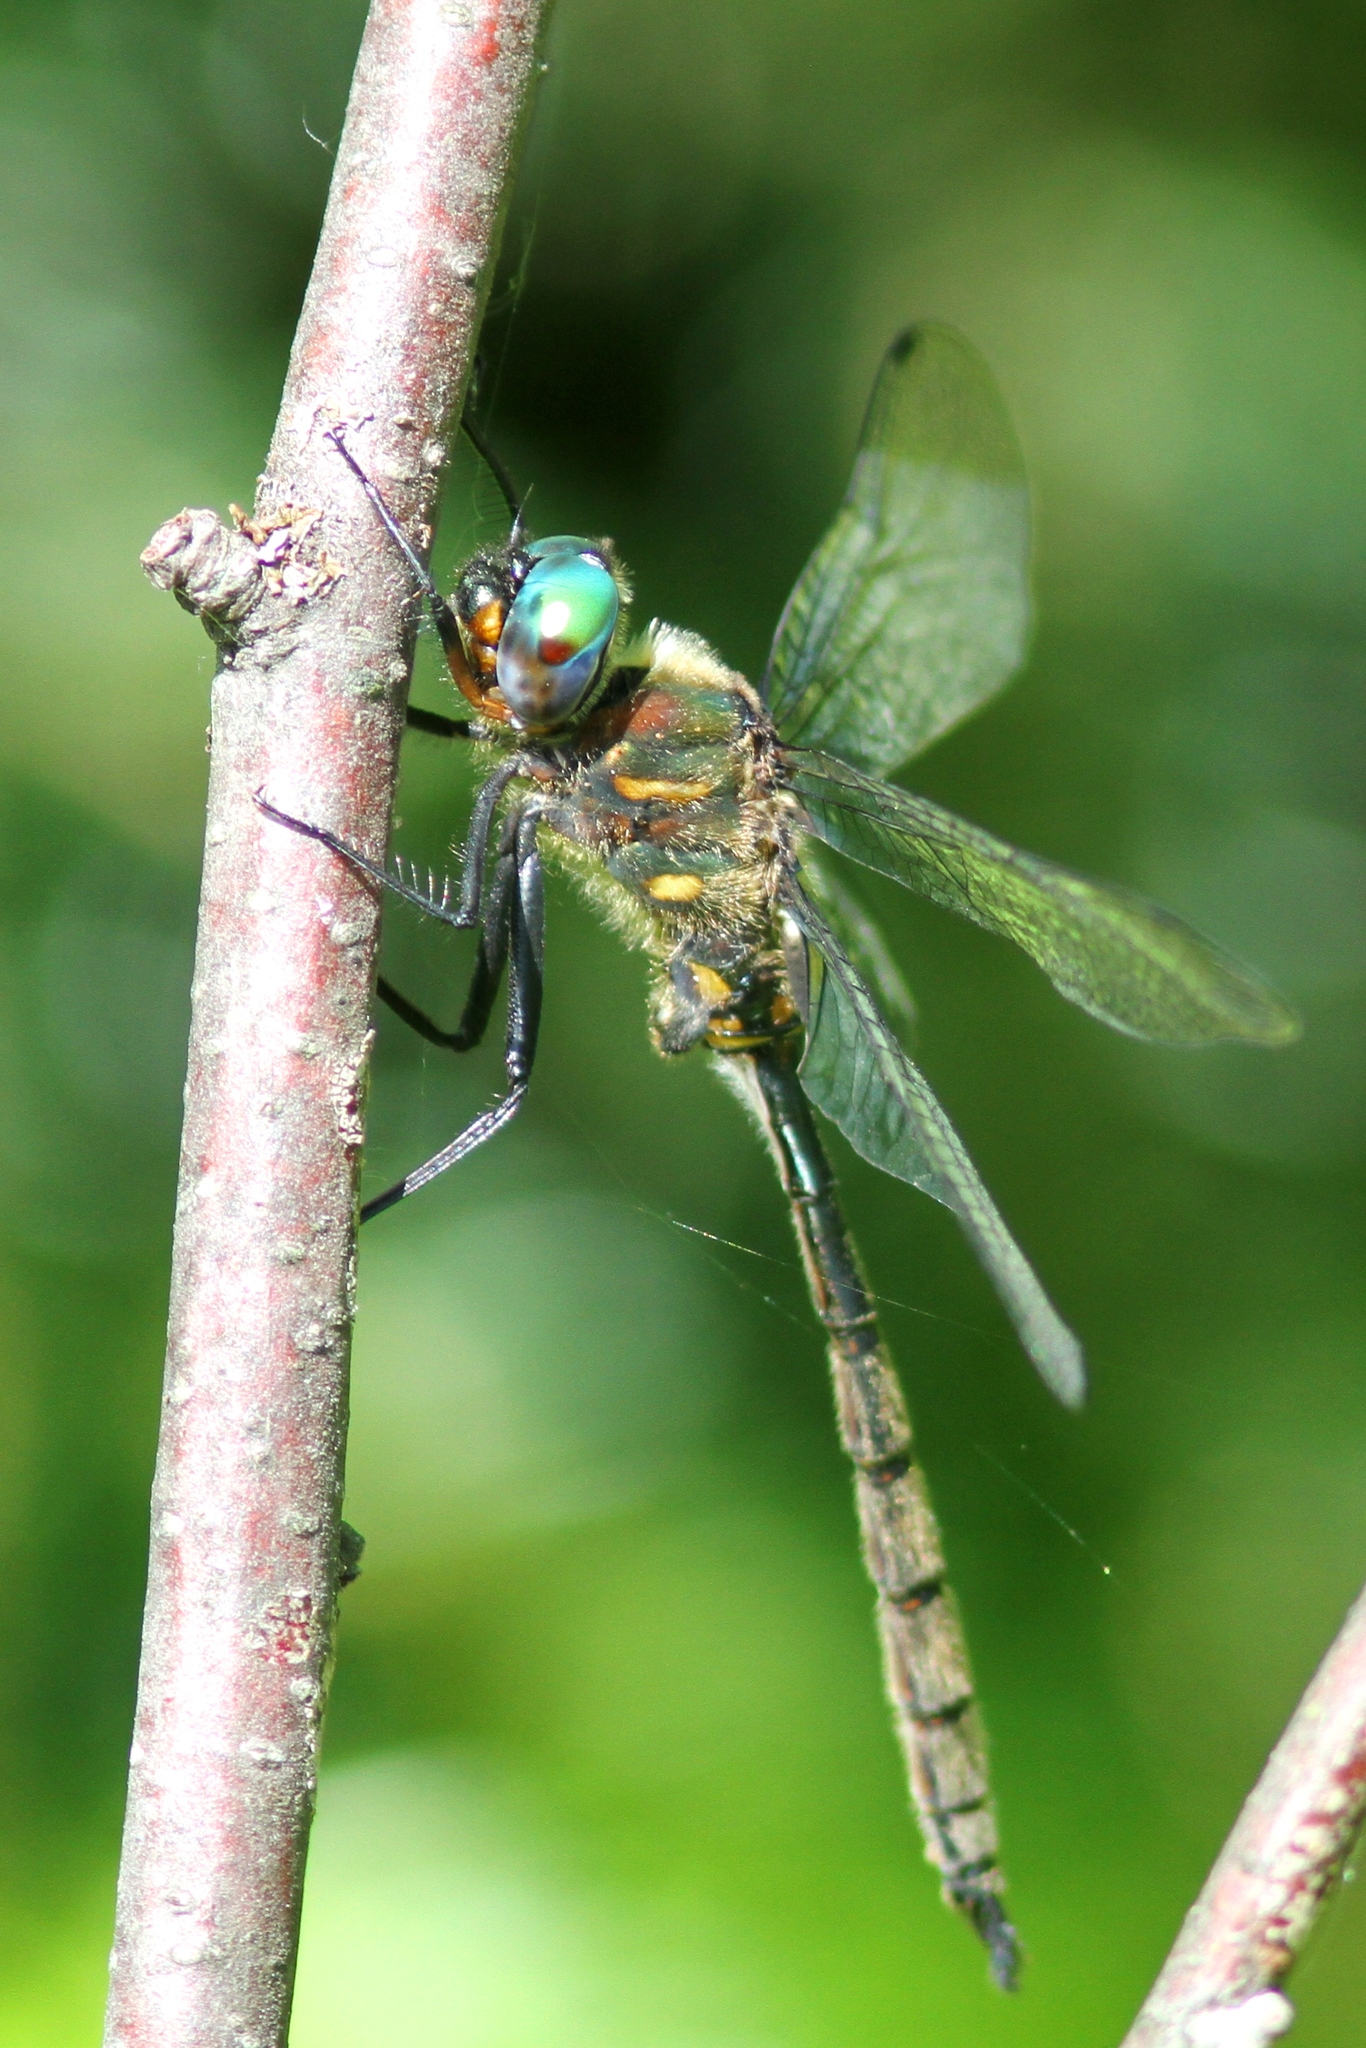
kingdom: Animalia
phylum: Arthropoda
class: Insecta
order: Odonata
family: Corduliidae
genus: Somatochlora
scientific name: Somatochlora williamsoni
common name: Williamson's emerald
